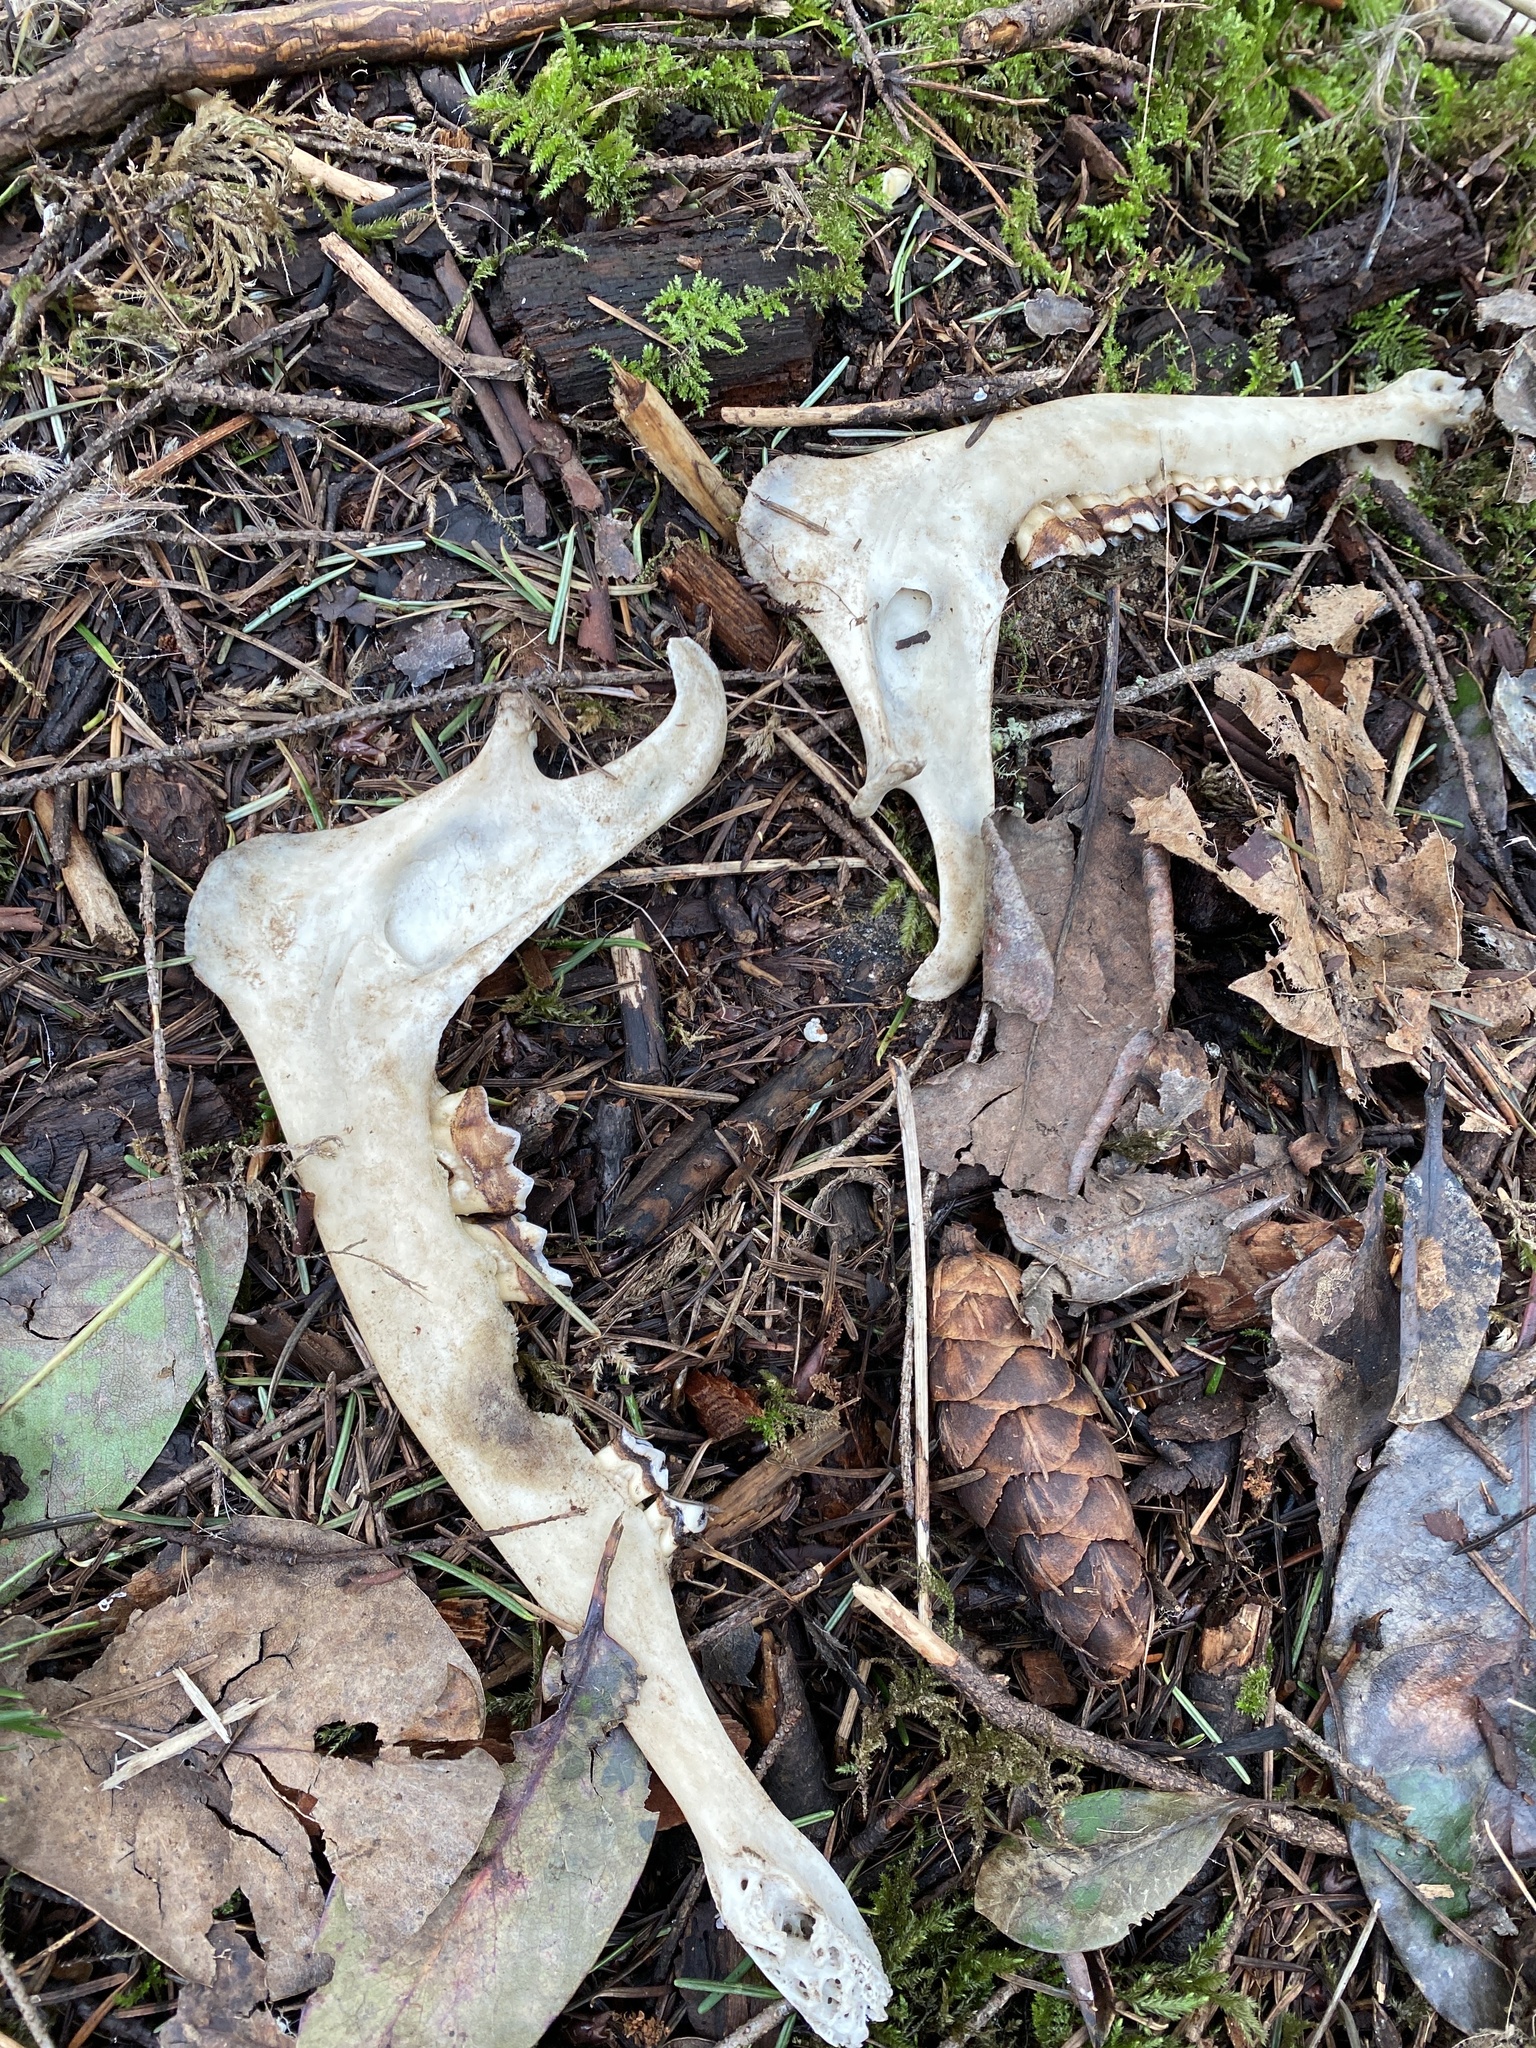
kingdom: Animalia
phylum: Chordata
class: Mammalia
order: Artiodactyla
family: Cervidae
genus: Odocoileus
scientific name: Odocoileus hemionus
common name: Mule deer
